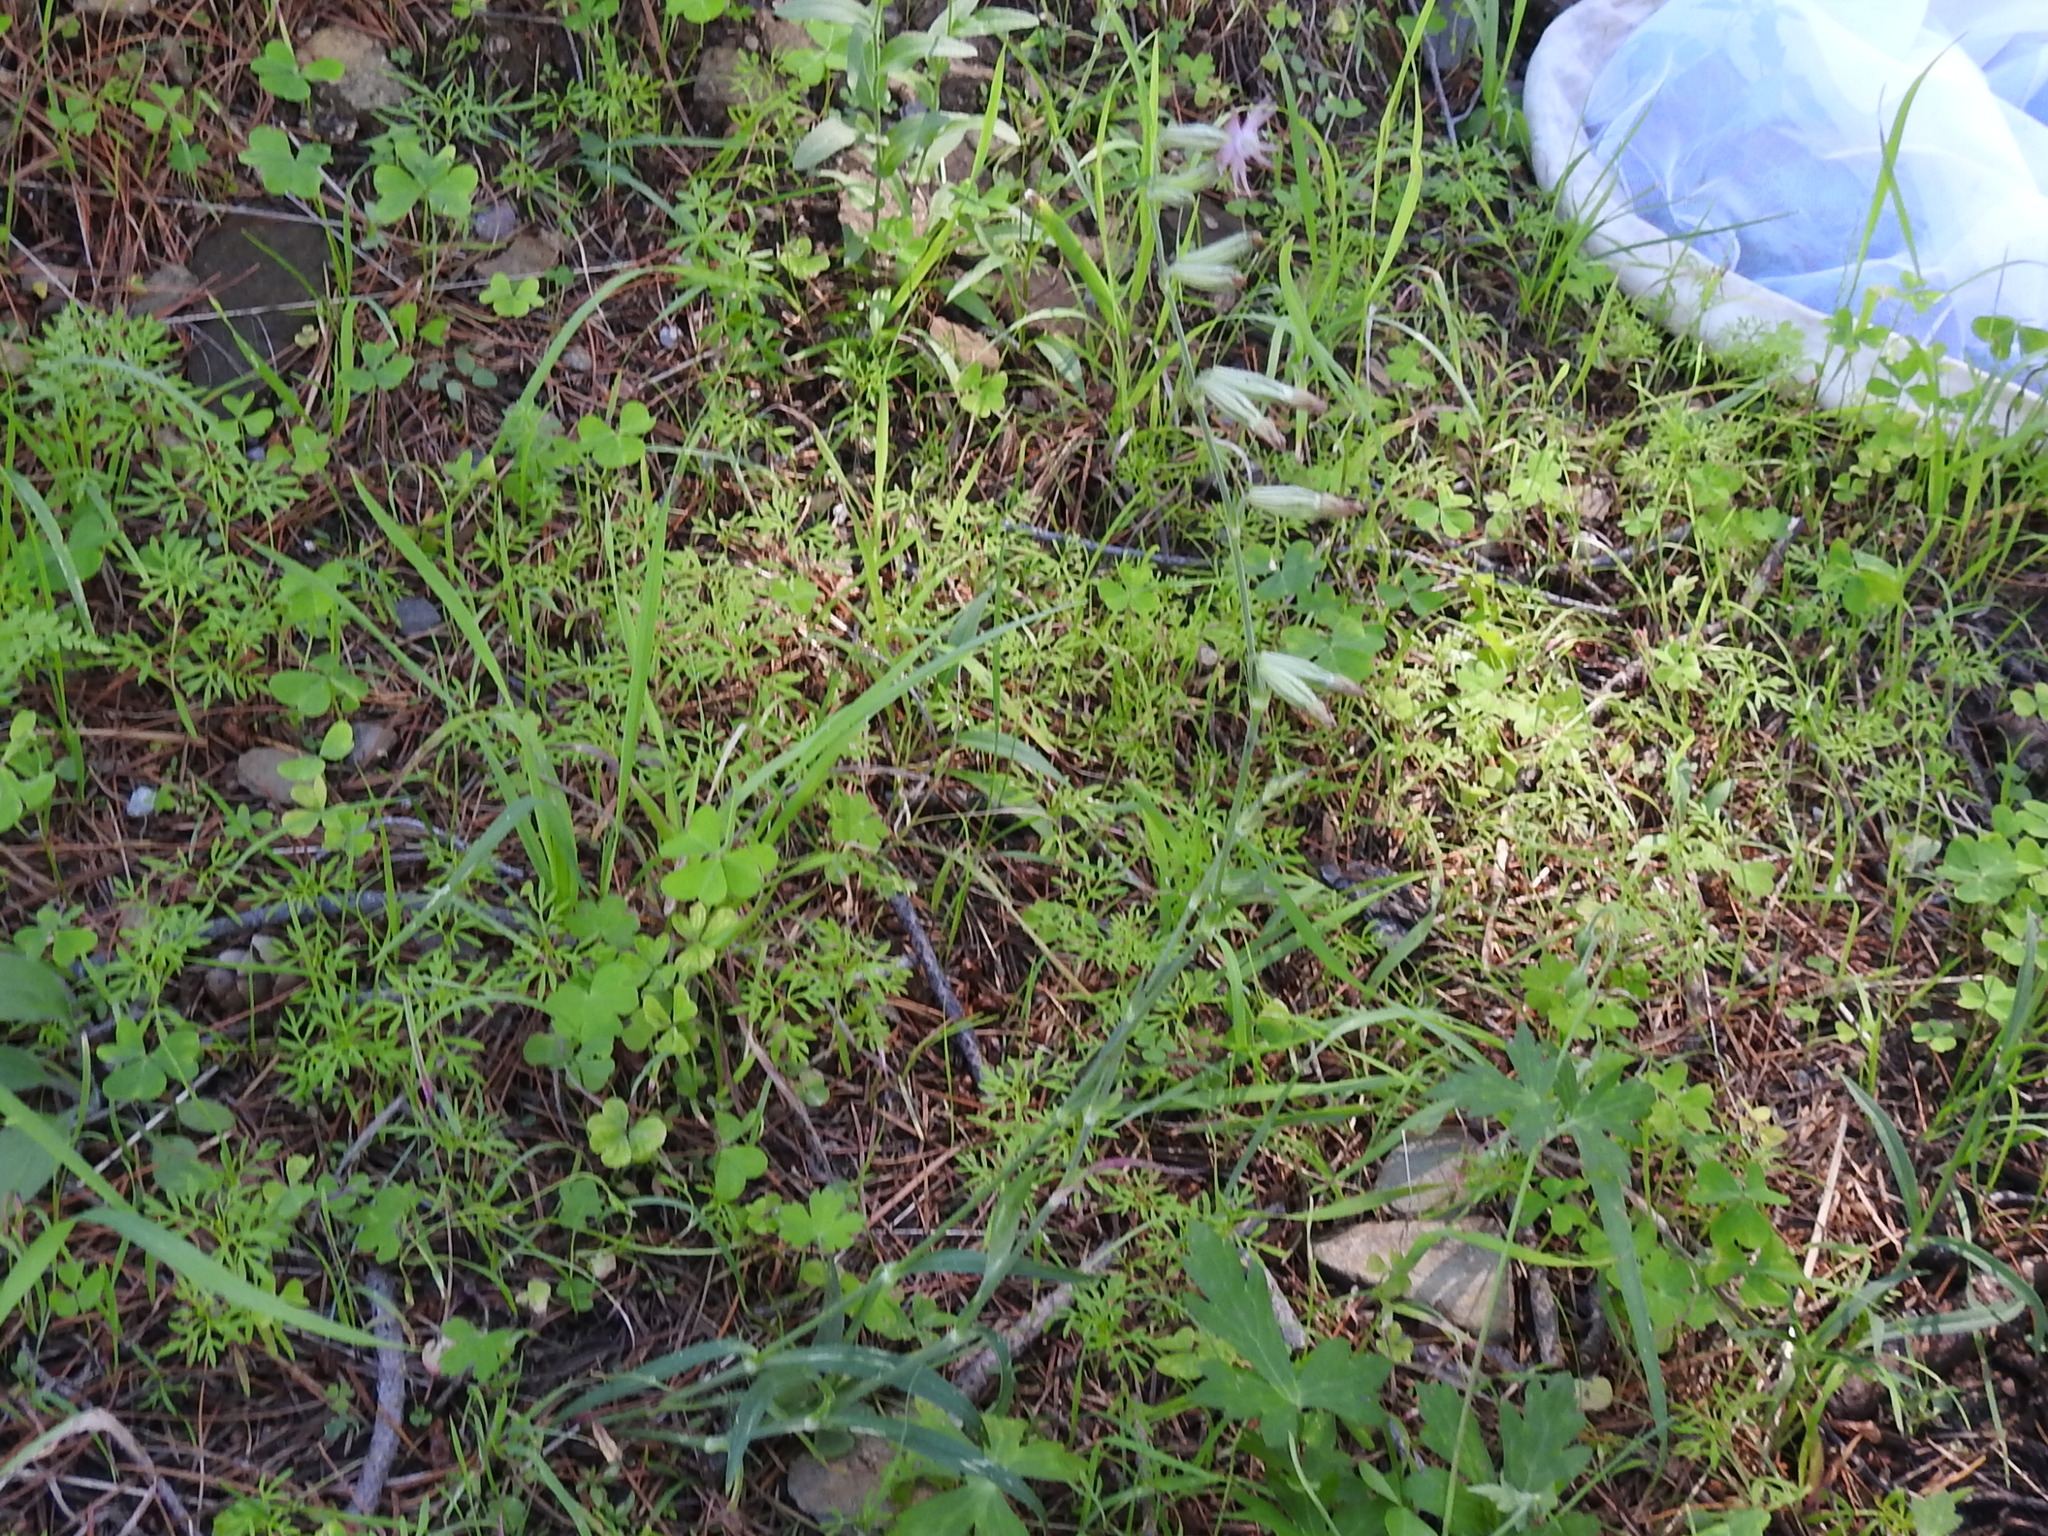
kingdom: Plantae
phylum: Tracheophyta
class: Magnoliopsida
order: Caryophyllales
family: Caryophyllaceae
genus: Silene
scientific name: Silene scouleri
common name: Scouler's campion
